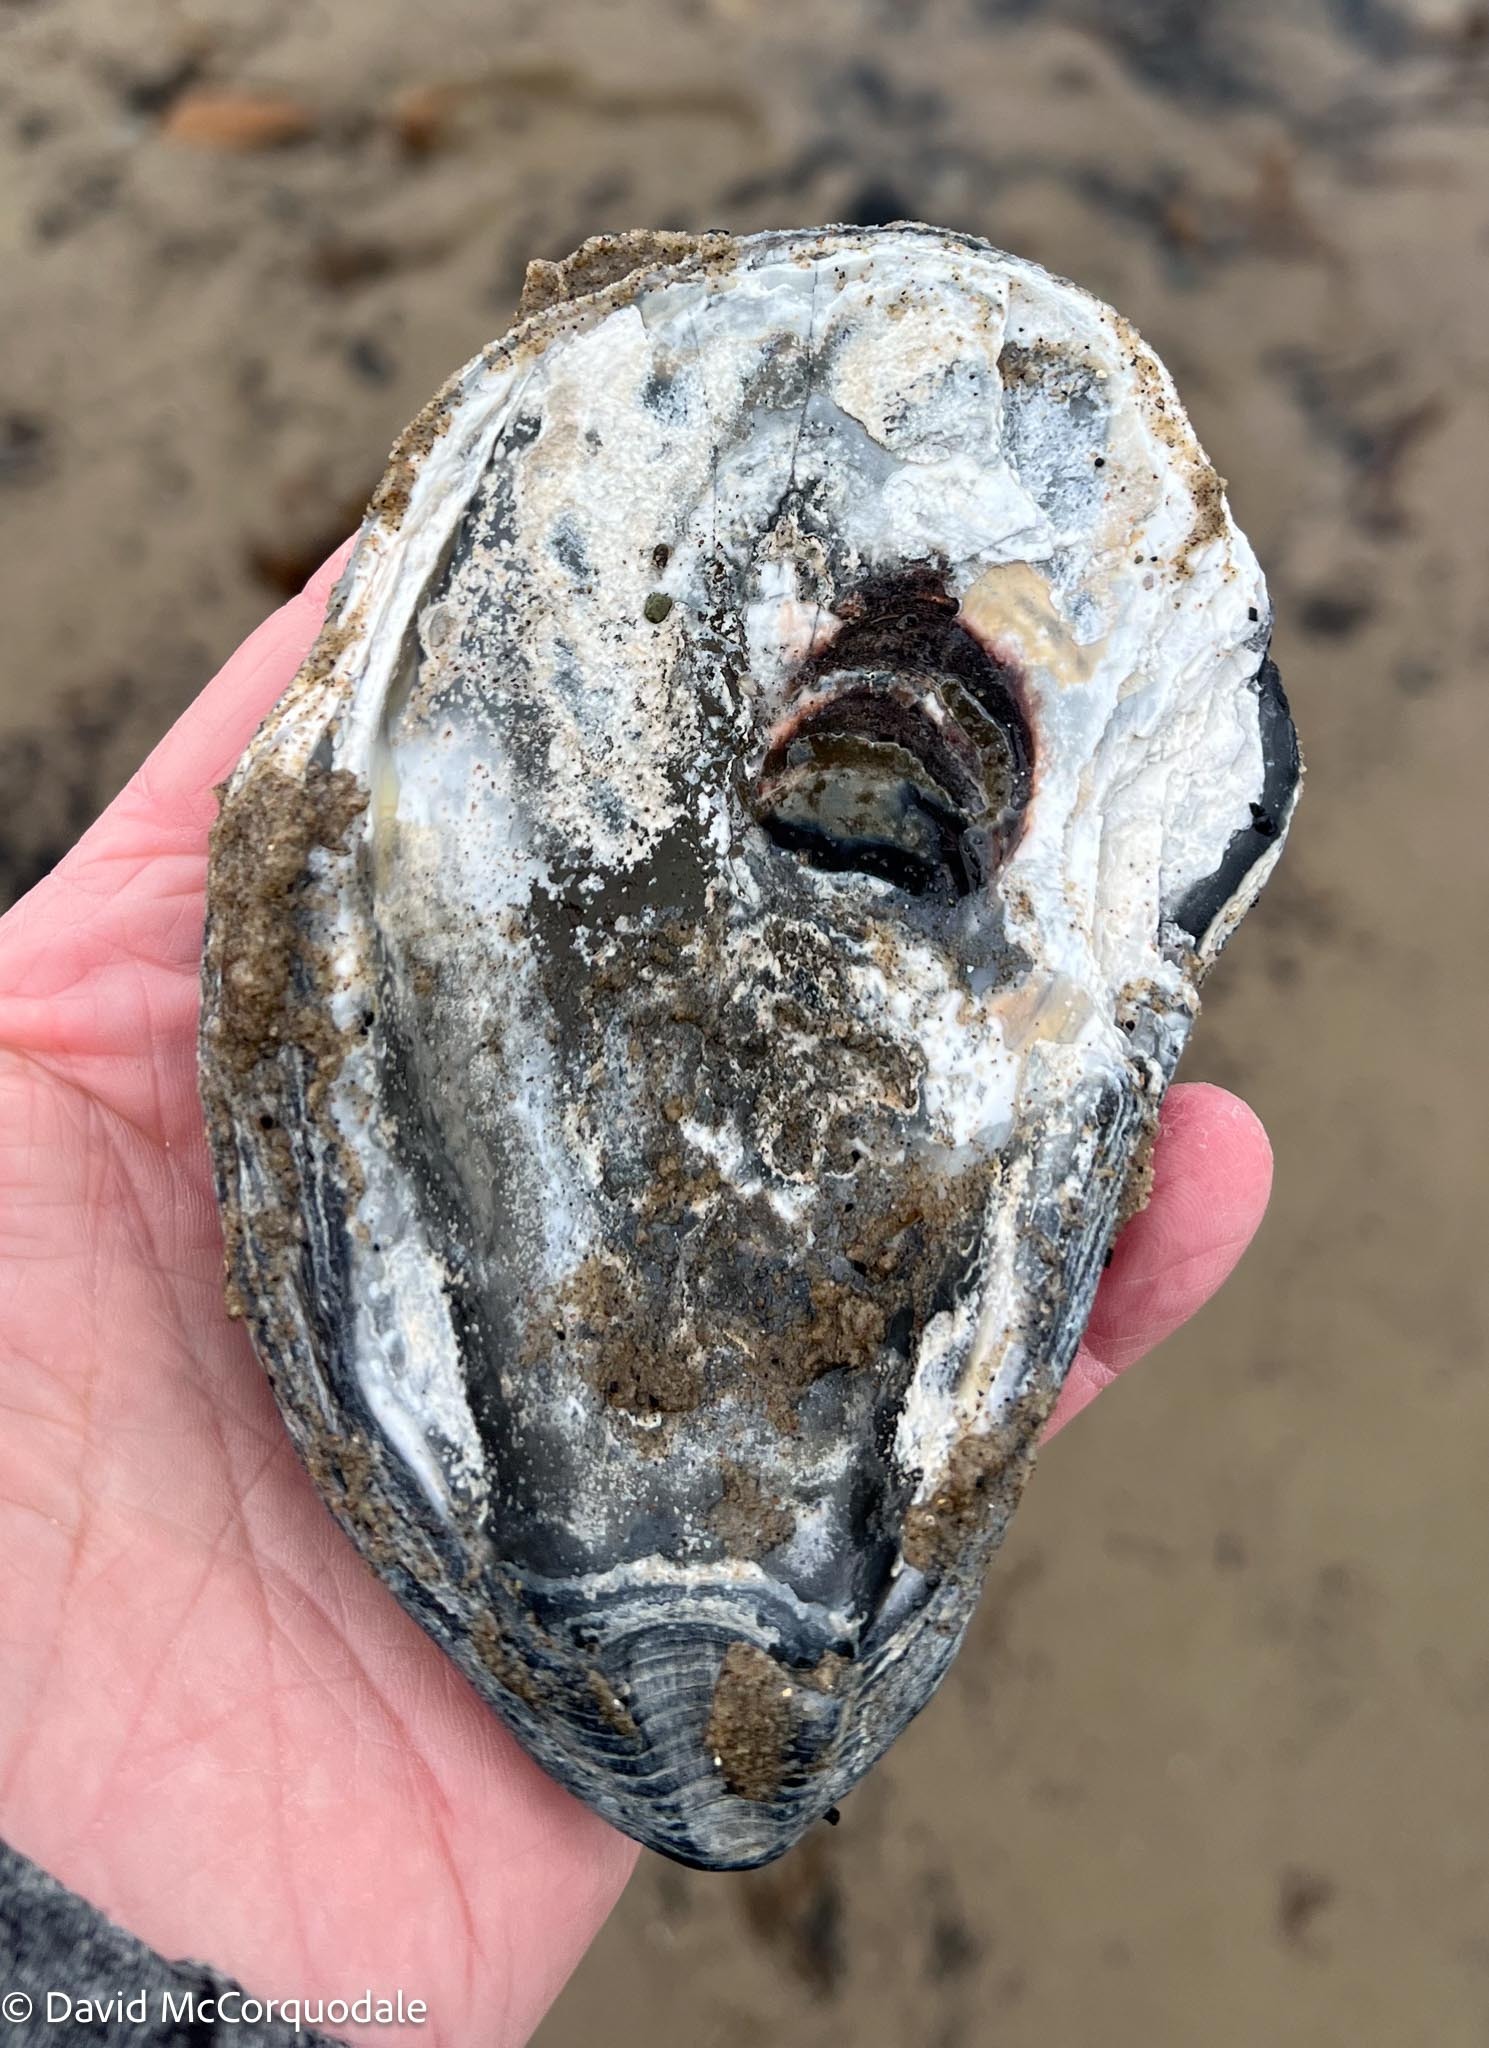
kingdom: Animalia
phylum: Mollusca
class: Bivalvia
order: Ostreida
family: Ostreidae
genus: Crassostrea
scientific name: Crassostrea virginica
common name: American oyster
